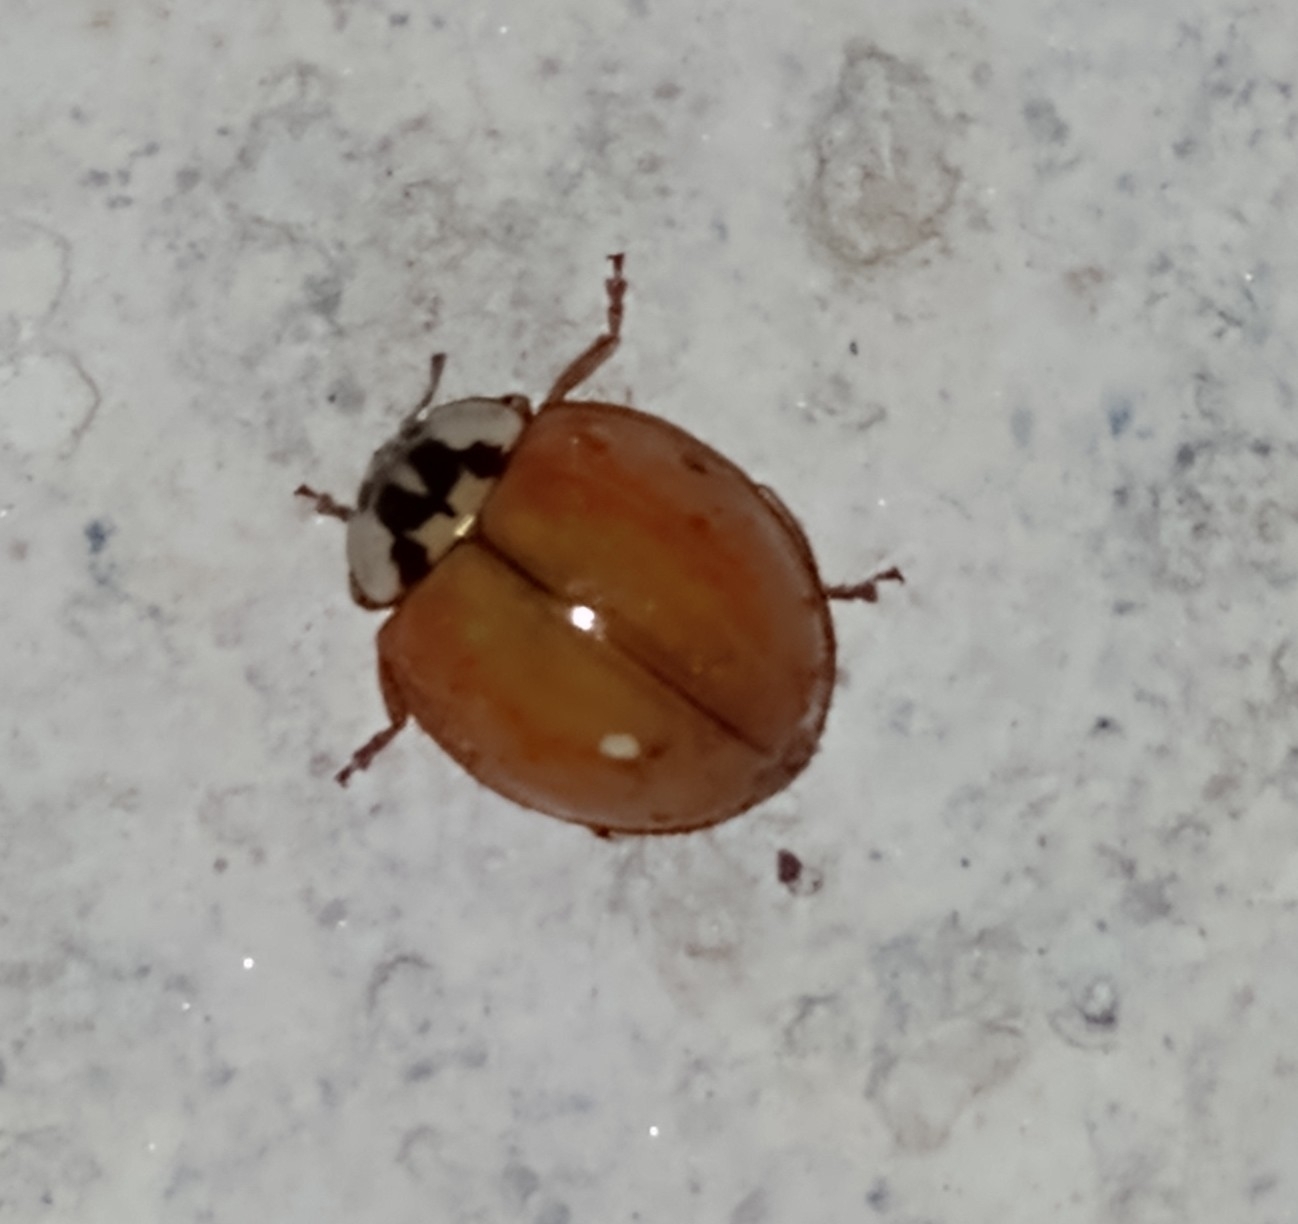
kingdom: Animalia
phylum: Arthropoda
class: Insecta
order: Coleoptera
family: Coccinellidae
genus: Harmonia
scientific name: Harmonia axyridis
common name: Harlequin ladybird
